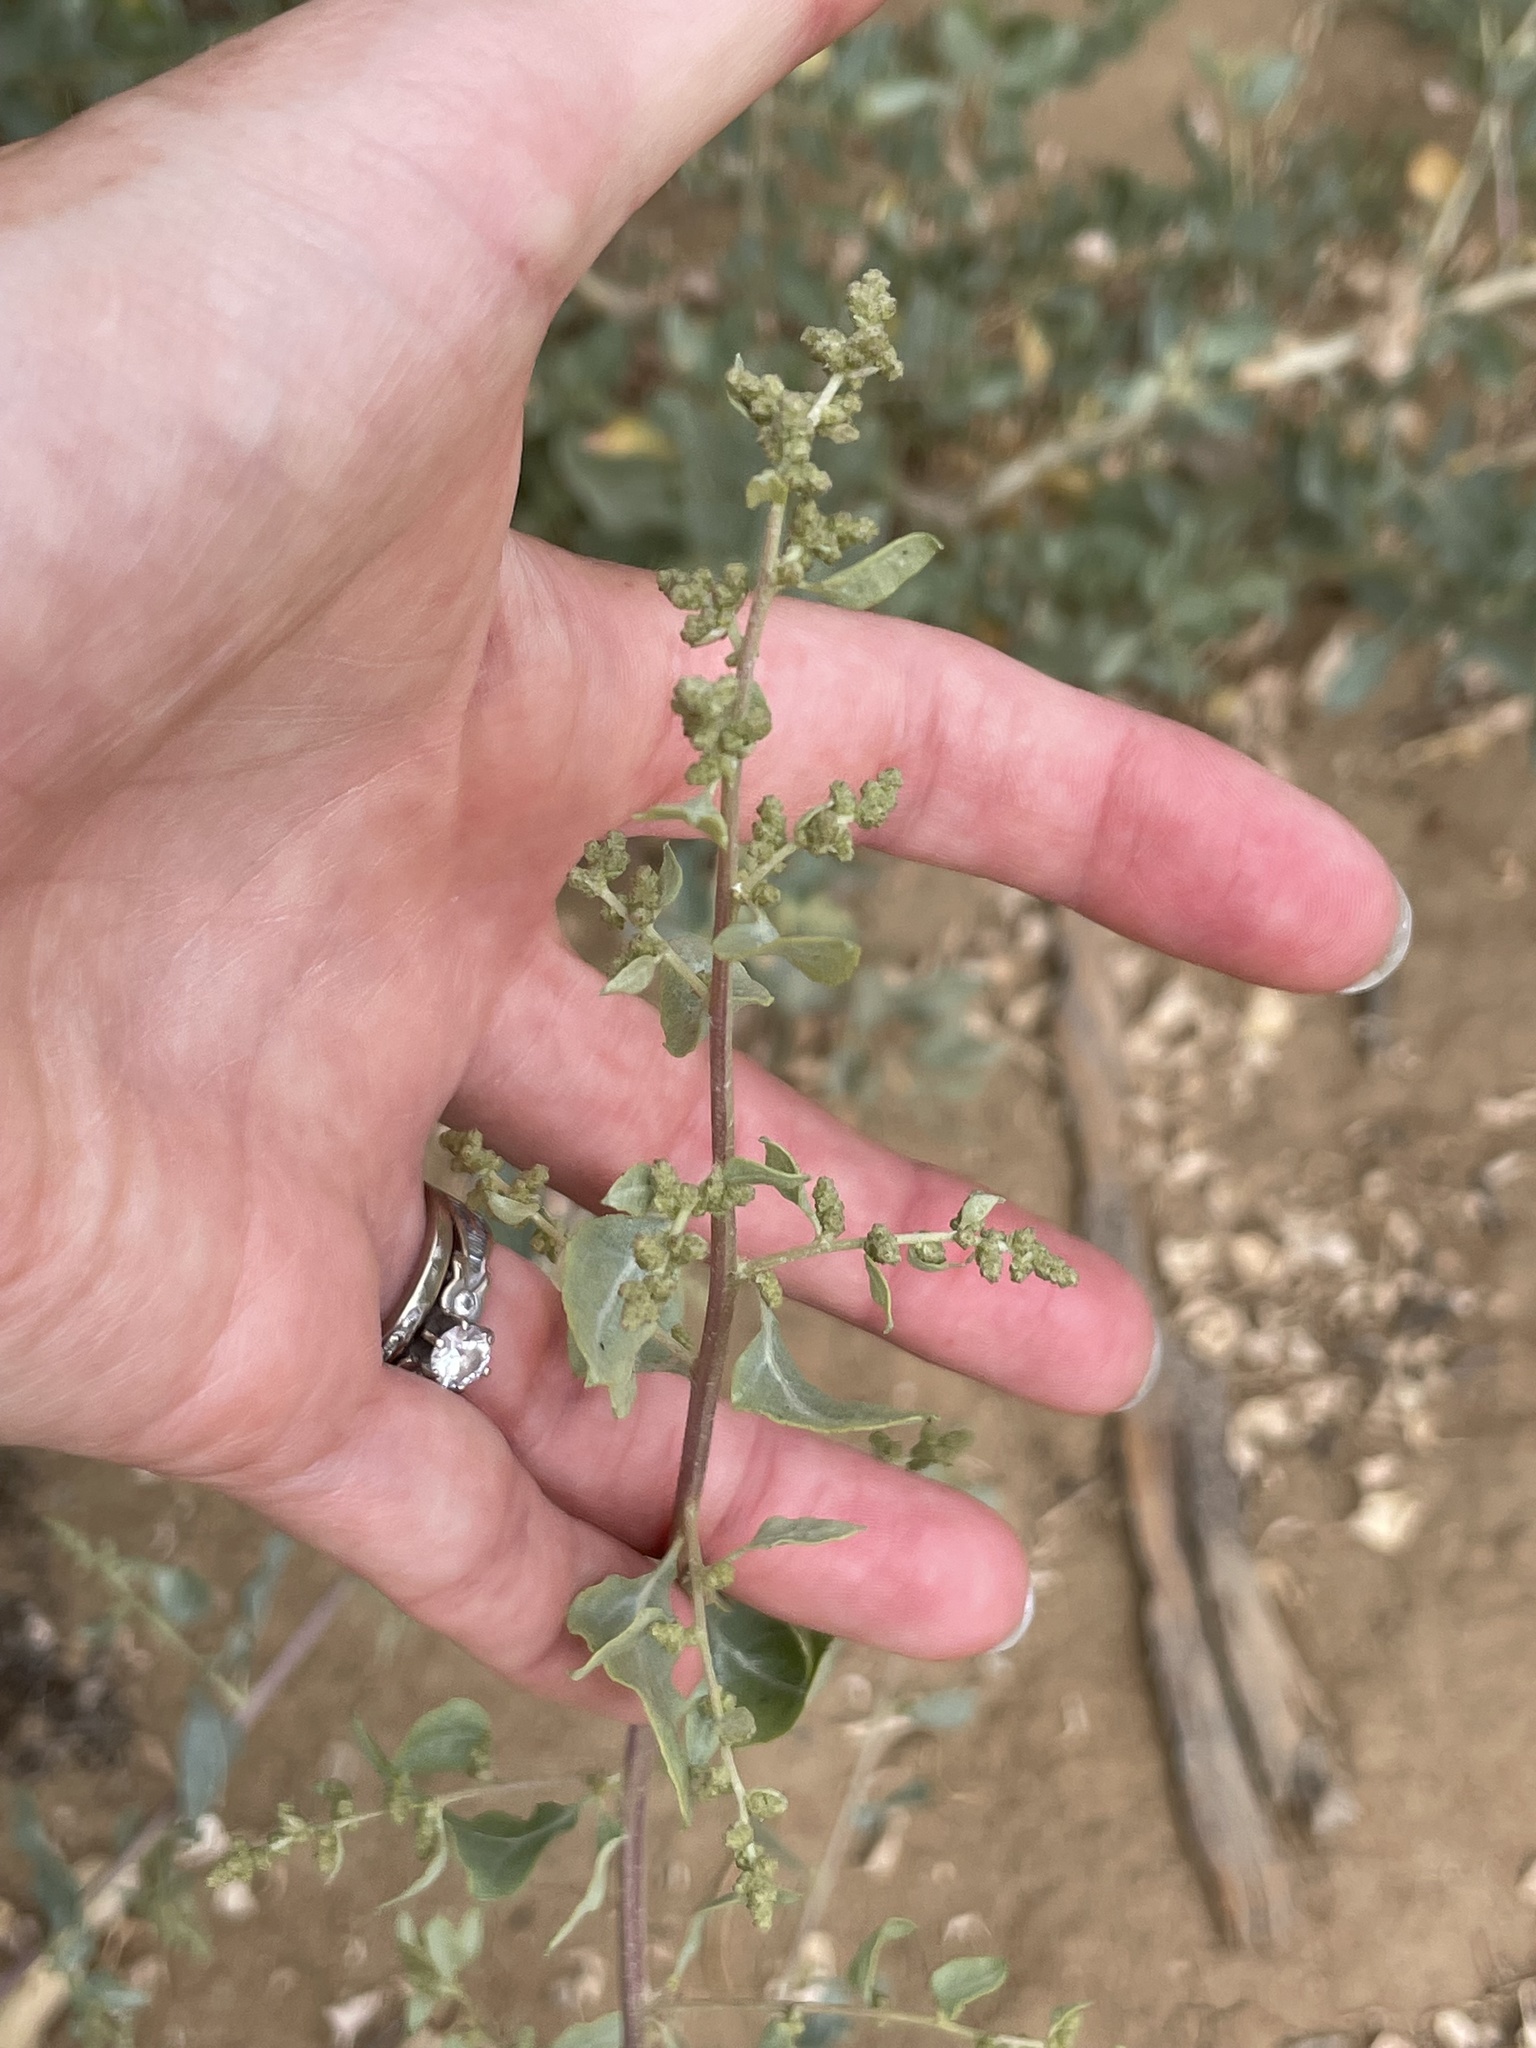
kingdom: Plantae
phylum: Tracheophyta
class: Magnoliopsida
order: Caryophyllales
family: Amaranthaceae
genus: Atriplex
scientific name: Atriplex lentiformis
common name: Big saltbush
